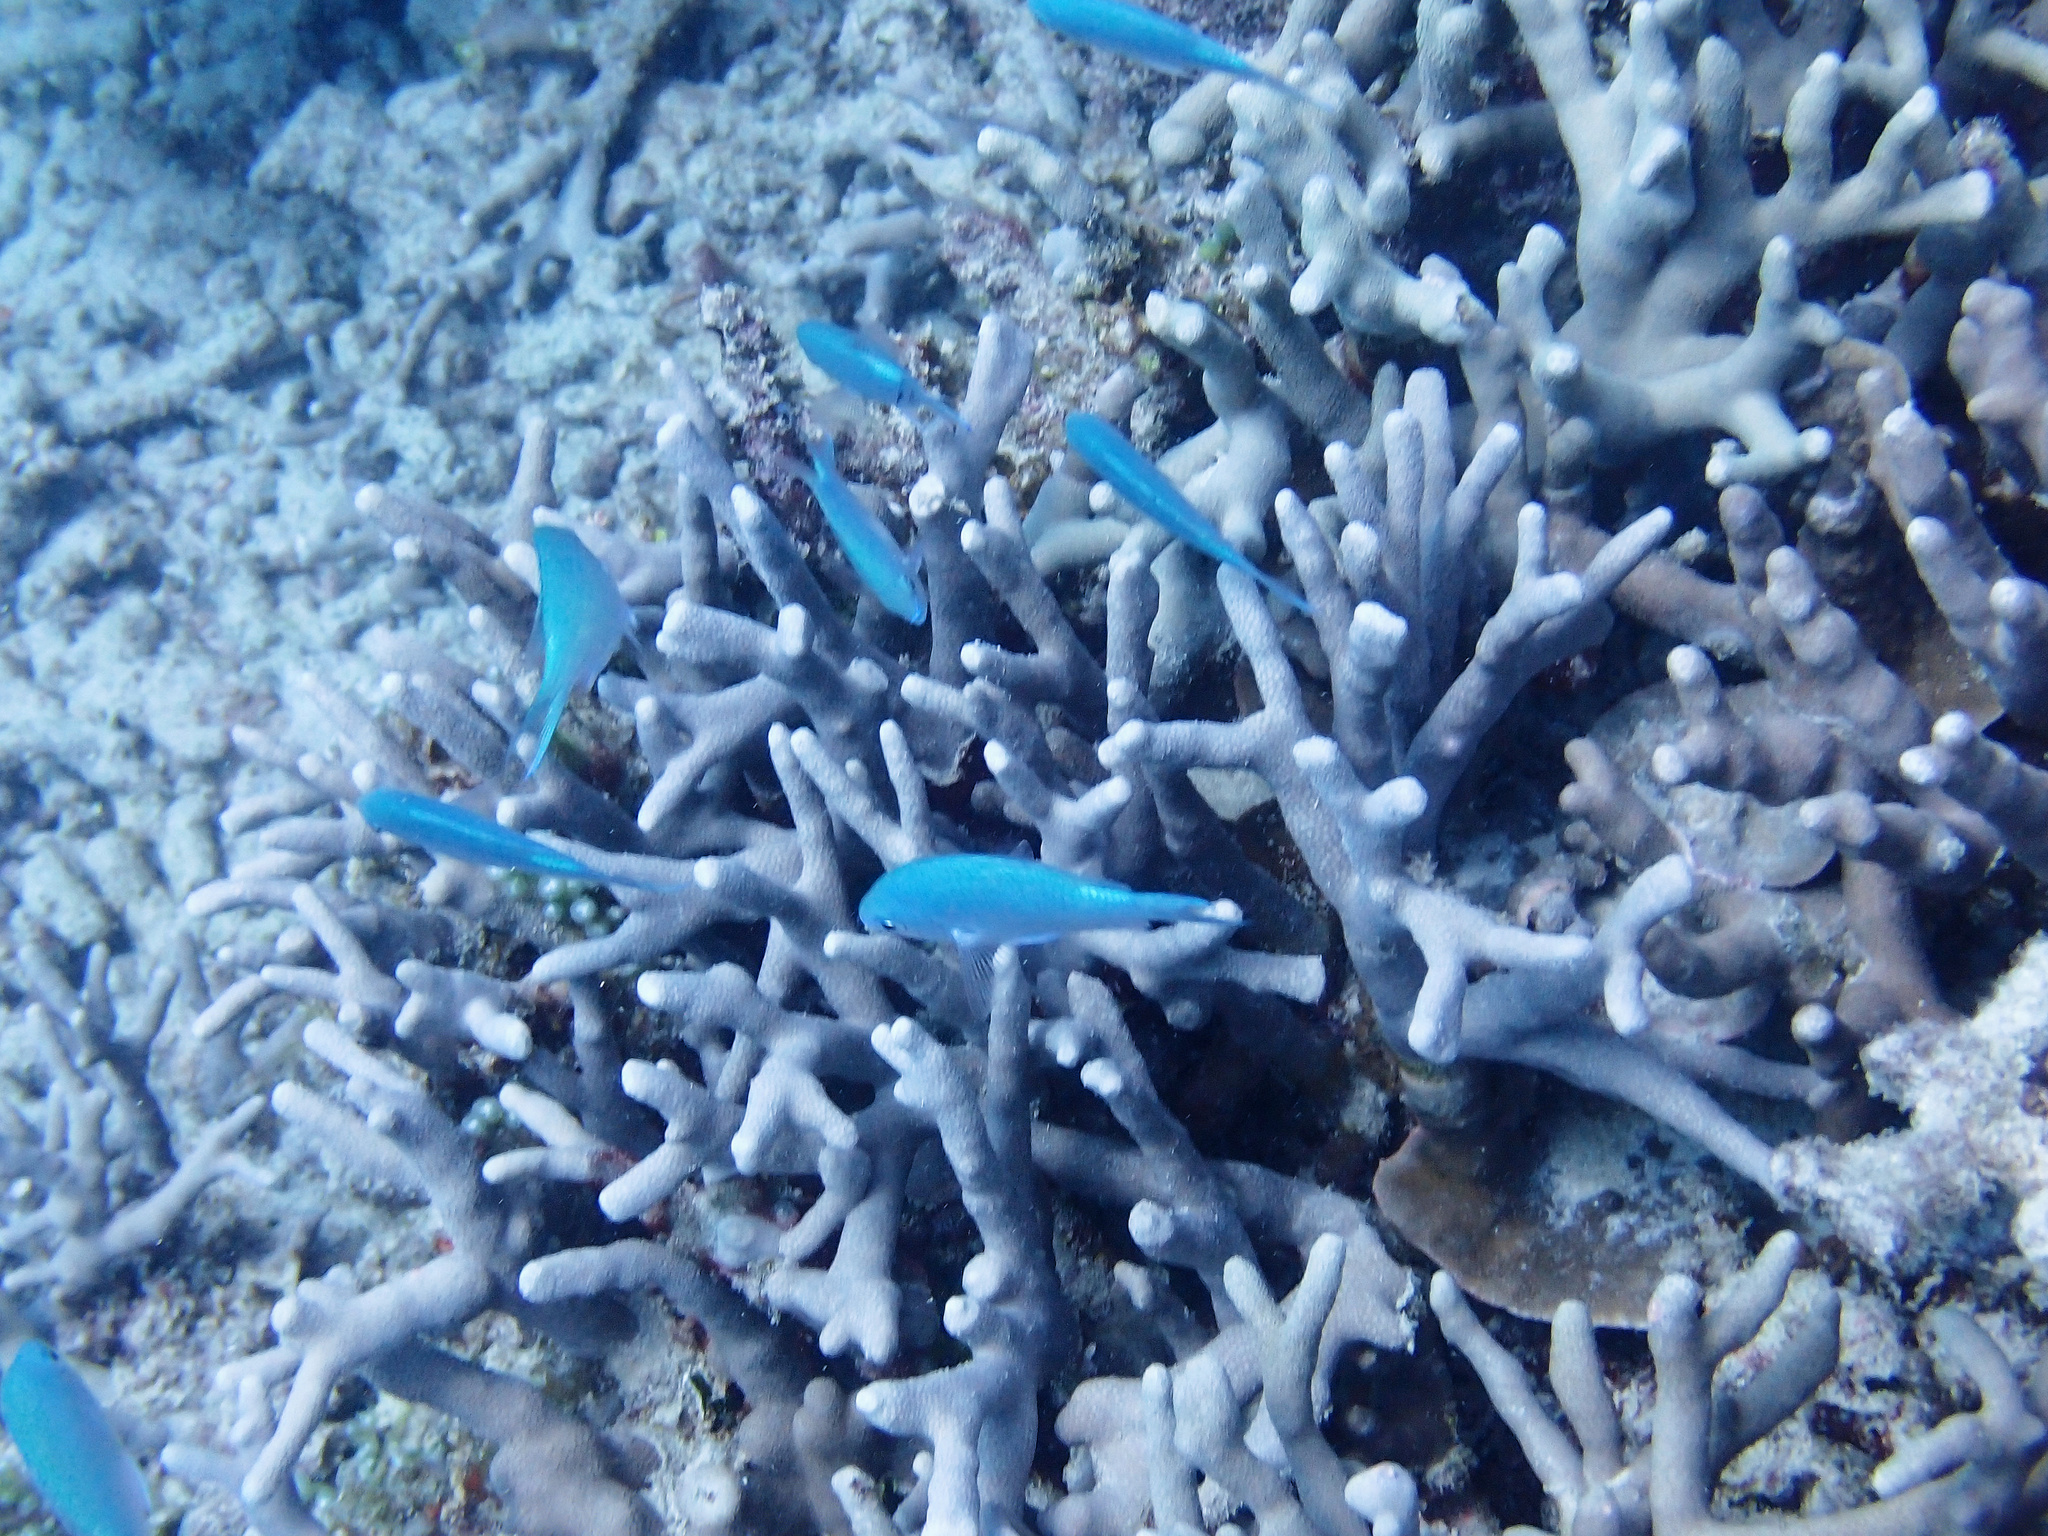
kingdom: Animalia
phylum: Cnidaria
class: Anthozoa
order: Scleractinia
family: Poritidae
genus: Porites
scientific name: Porites cylindrica
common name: Hump coral
